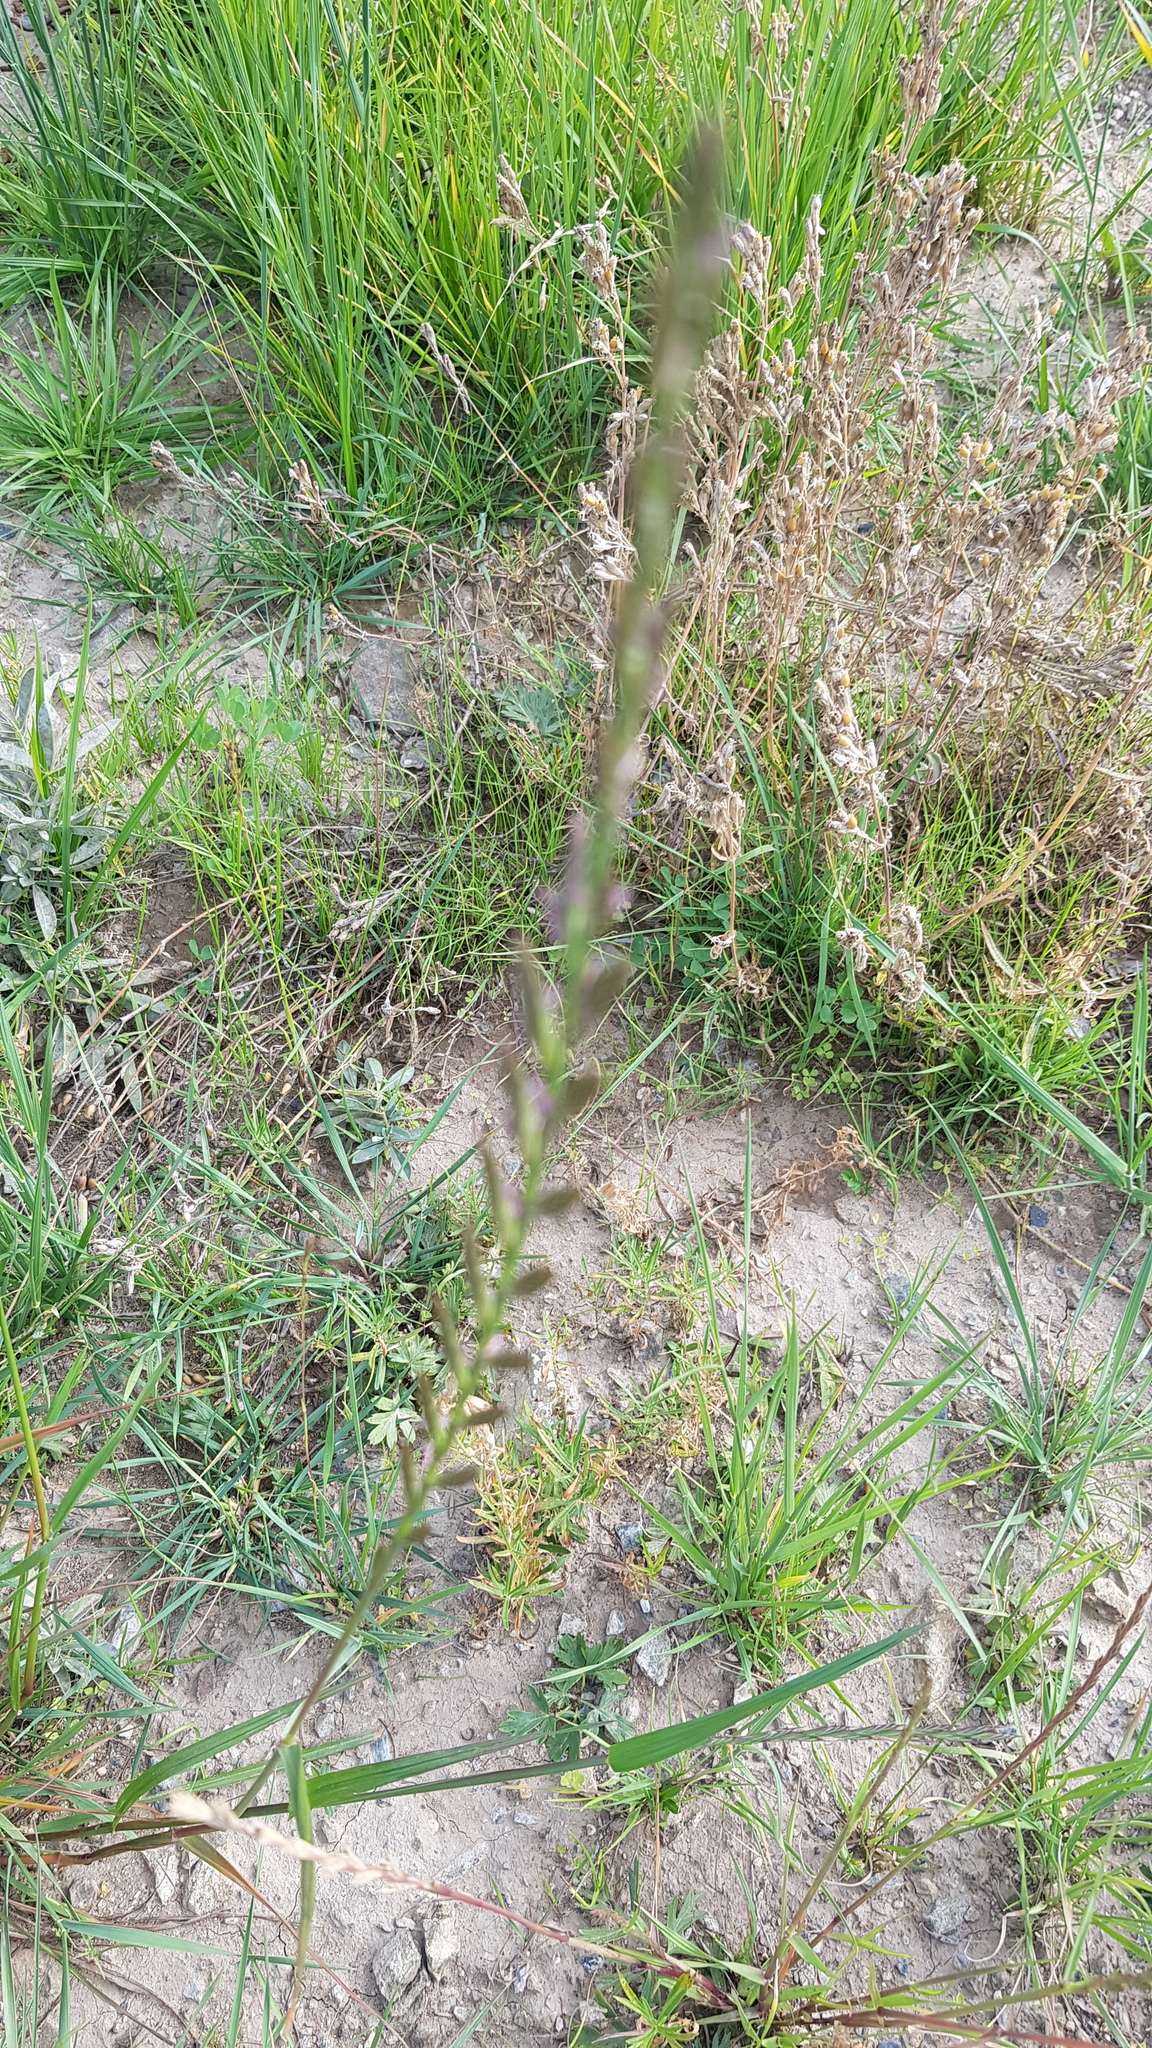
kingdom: Plantae
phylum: Tracheophyta
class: Liliopsida
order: Poales
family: Poaceae
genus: Bromus
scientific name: Bromus briziformis
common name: Rattlesnake brome
